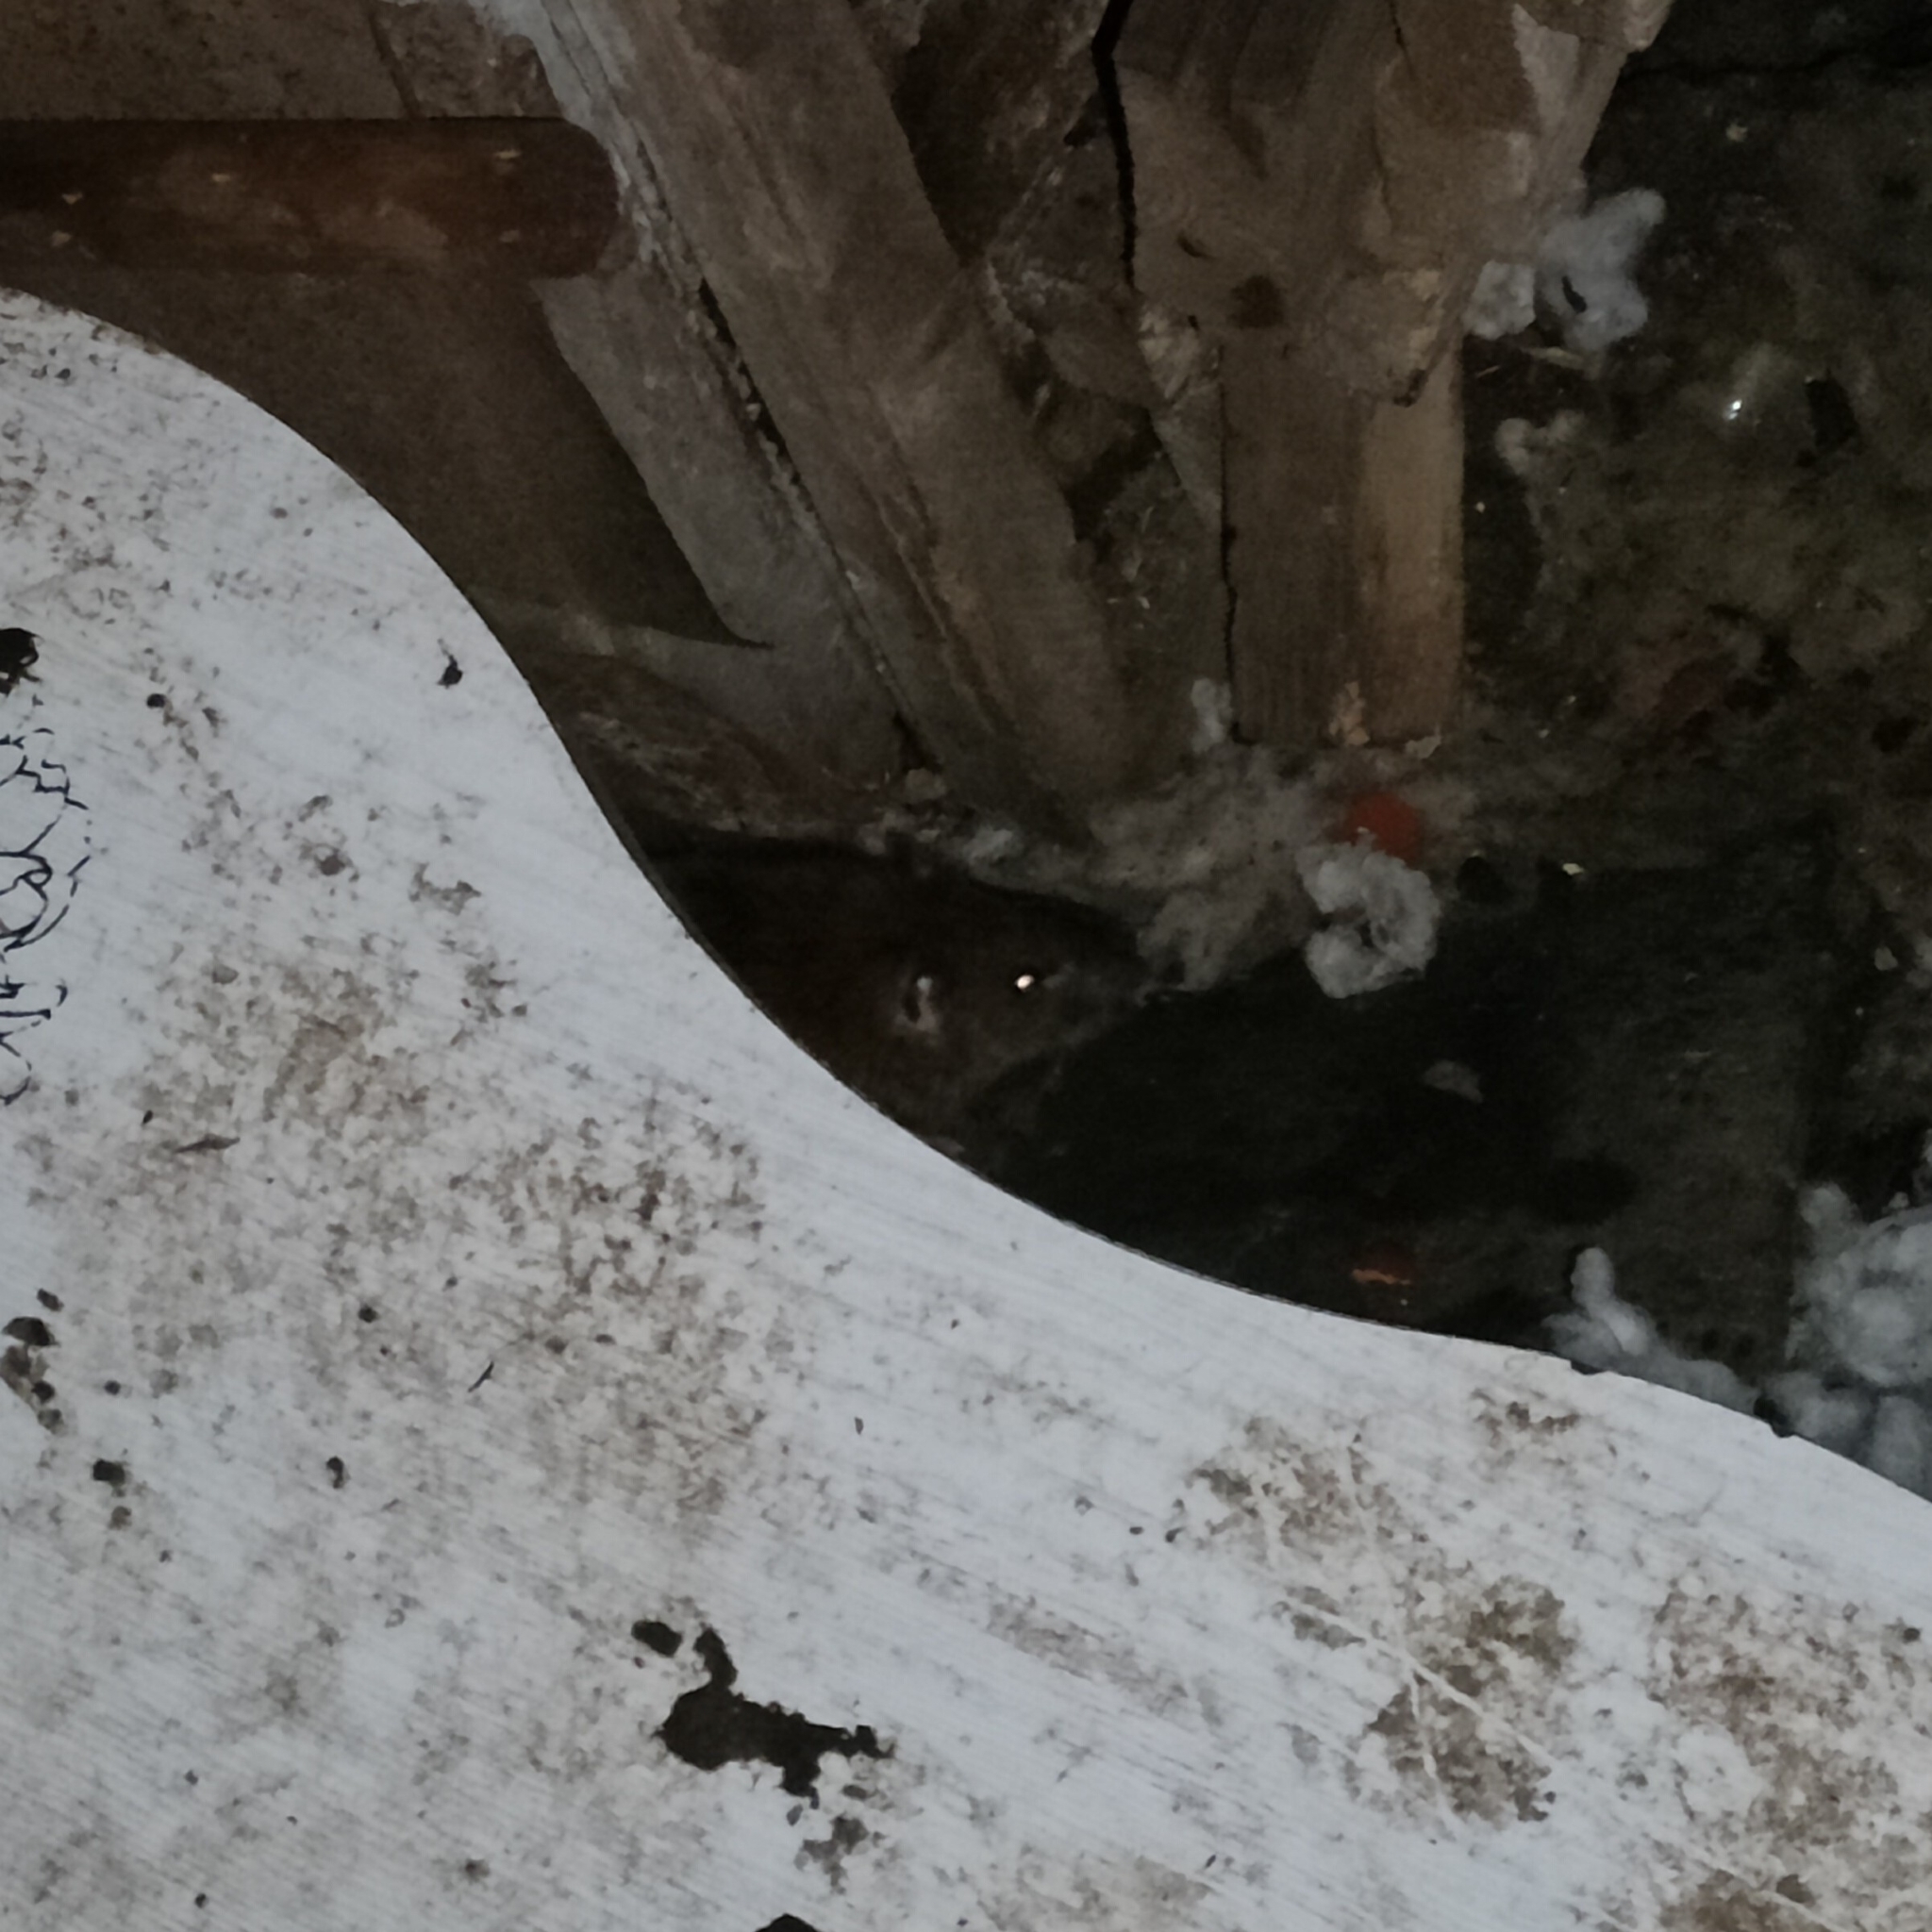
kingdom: Animalia
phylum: Chordata
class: Mammalia
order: Rodentia
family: Muridae
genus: Rattus
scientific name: Rattus norvegicus
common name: Brown rat
